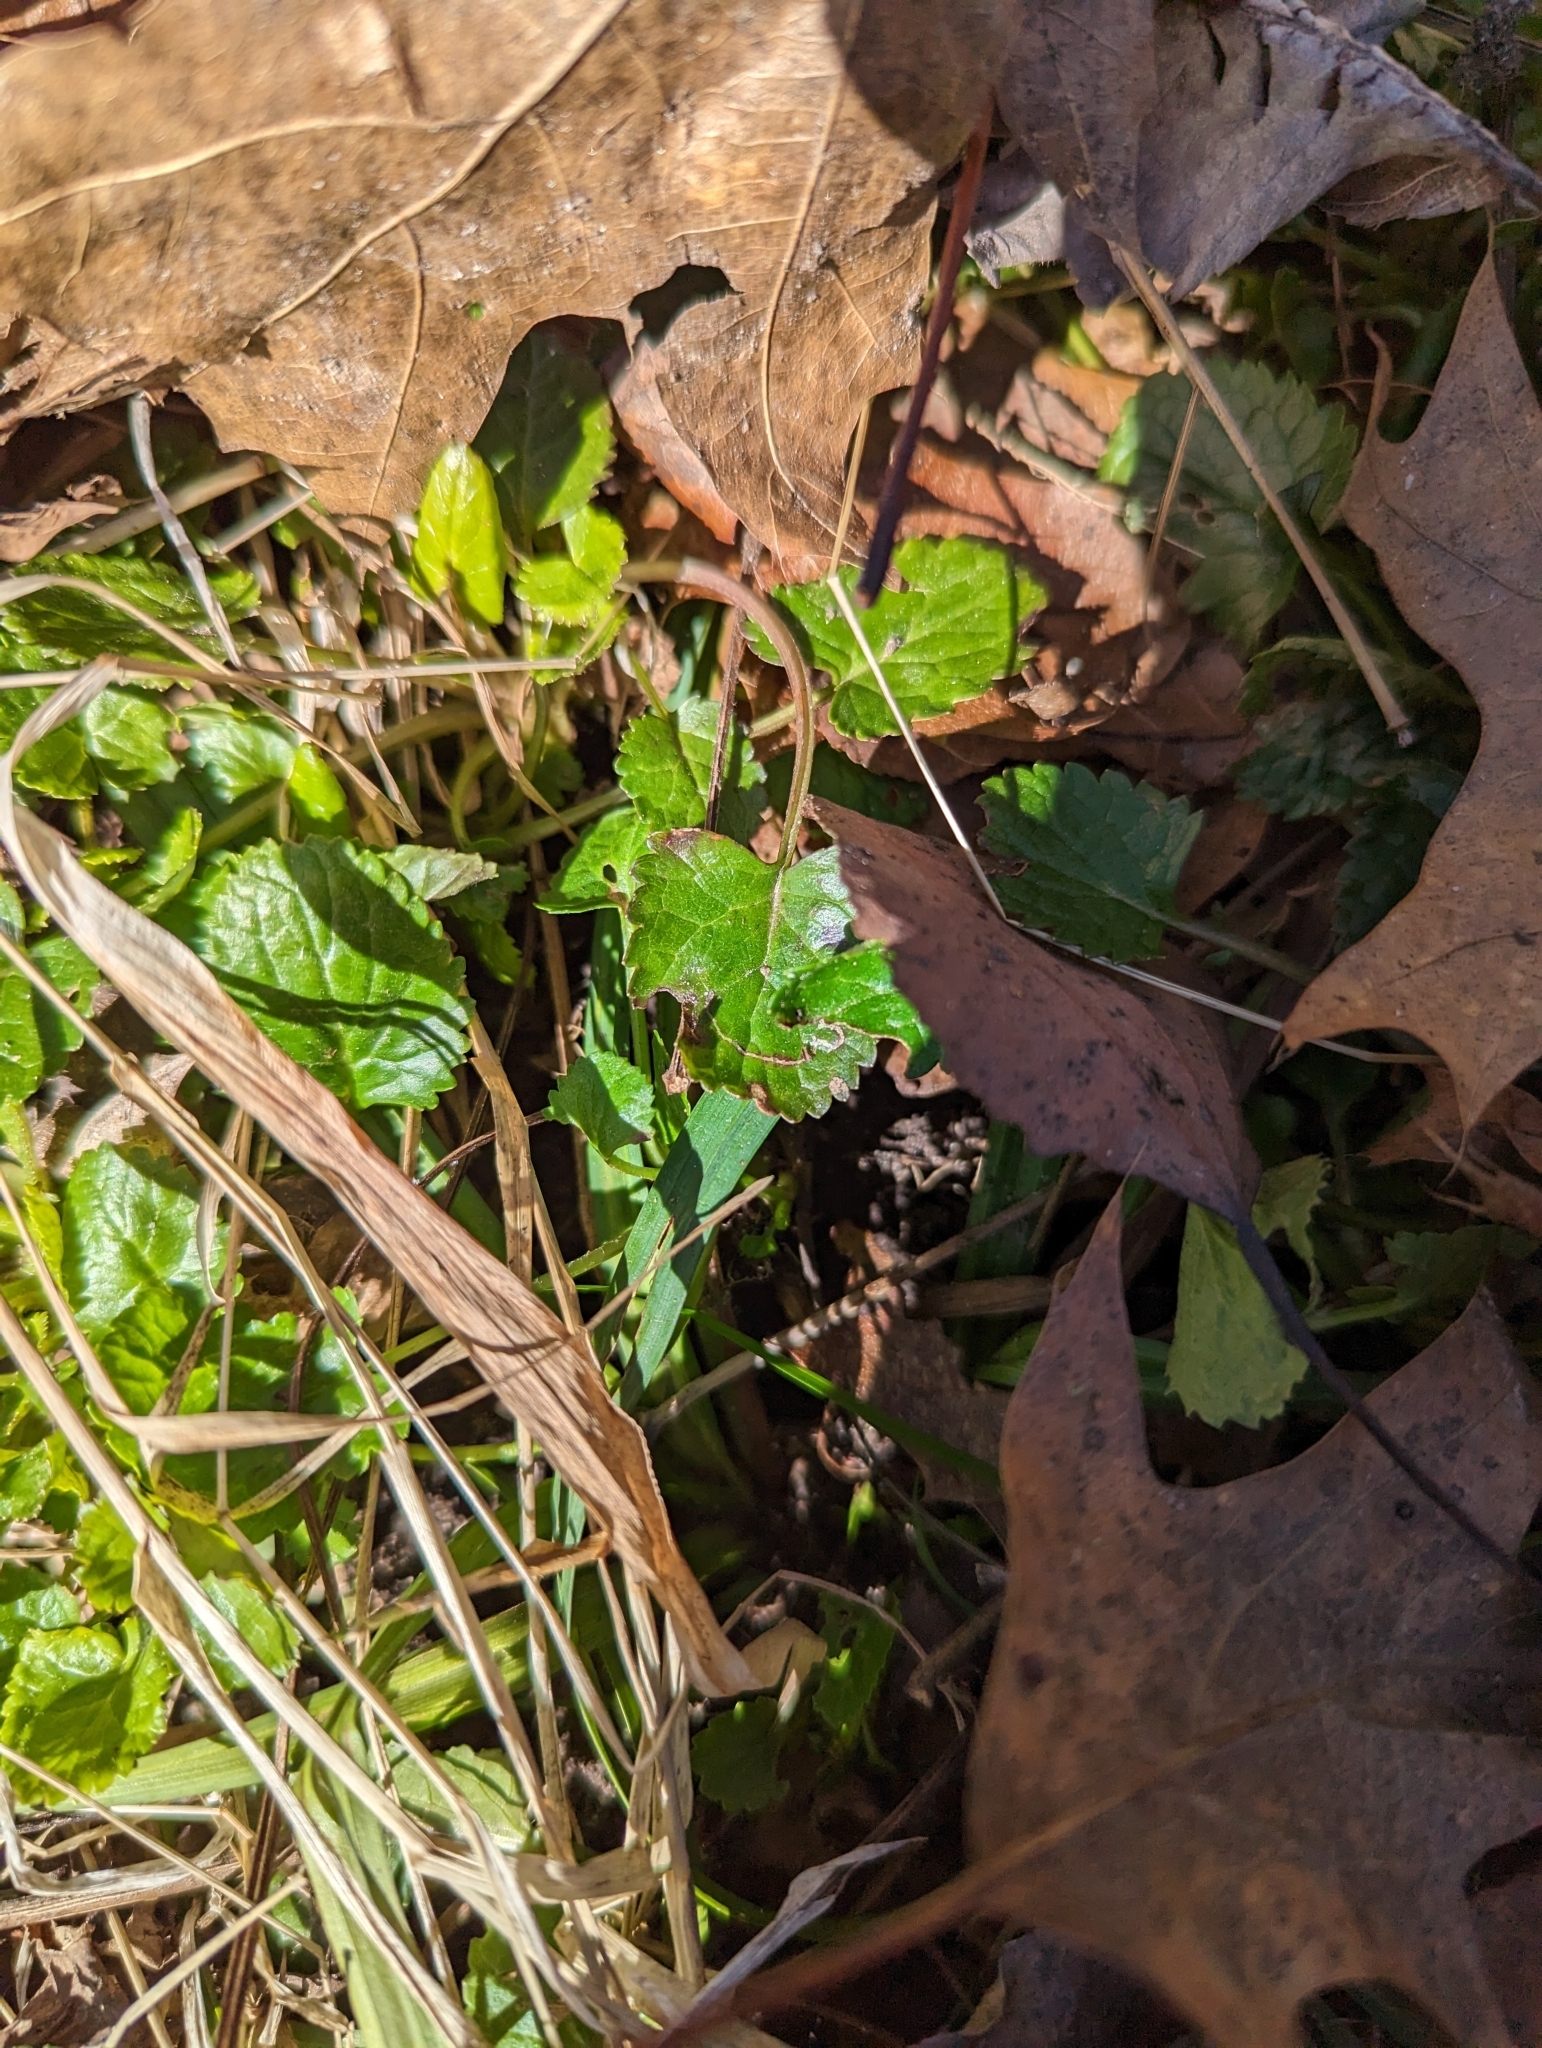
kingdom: Plantae
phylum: Tracheophyta
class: Magnoliopsida
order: Asterales
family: Asteraceae
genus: Packera
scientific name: Packera aurea
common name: Golden groundsel
